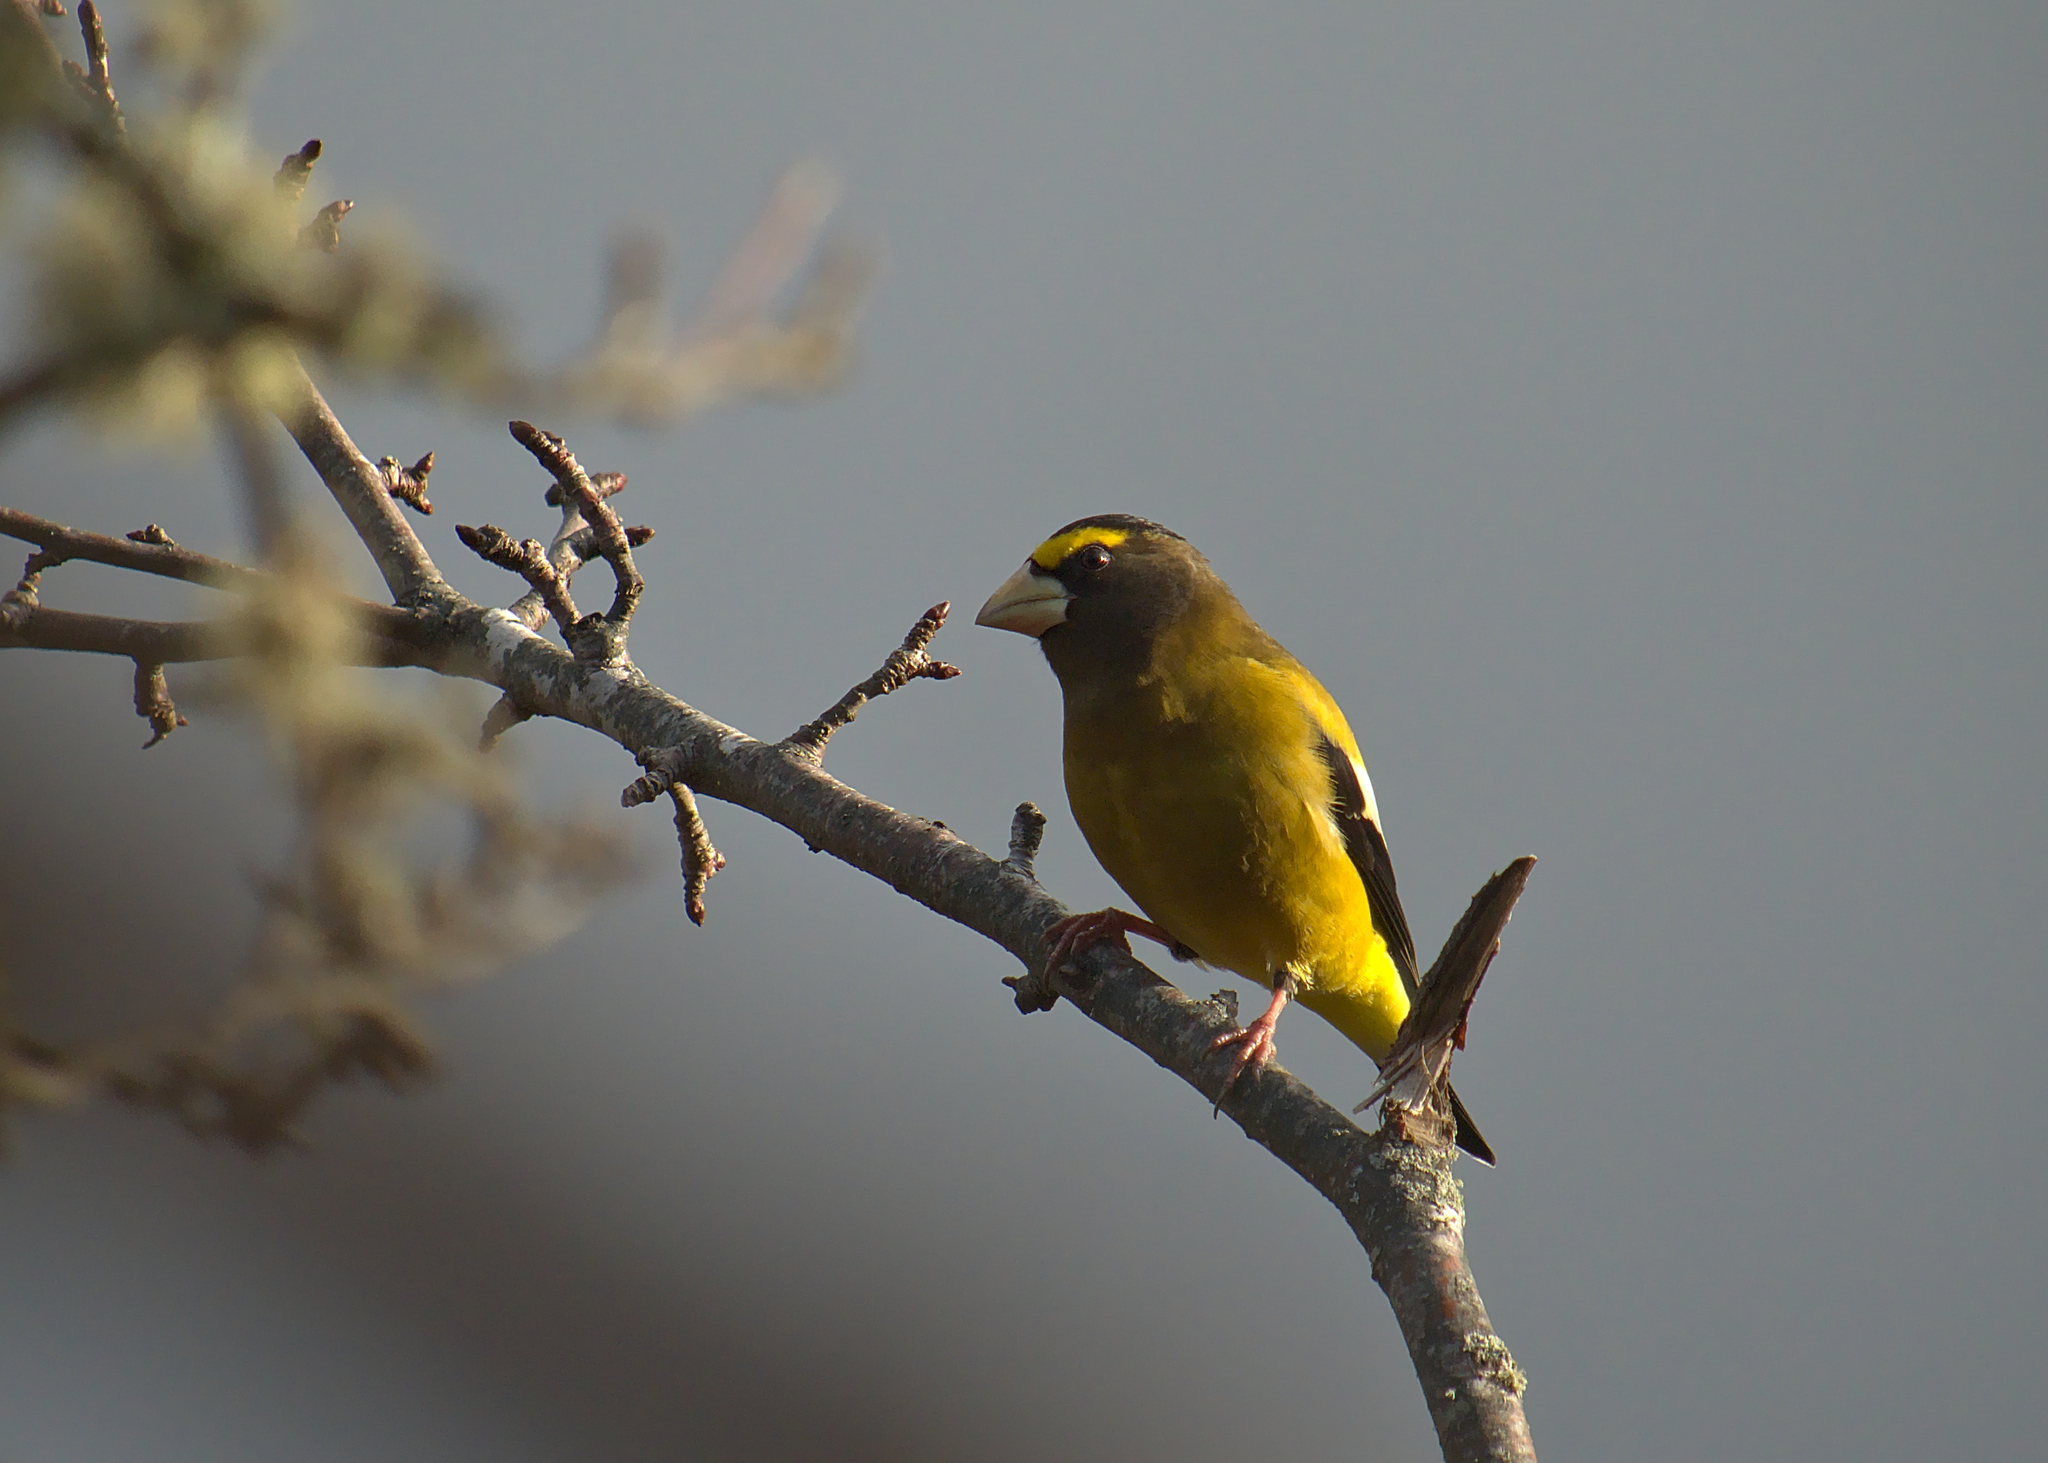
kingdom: Animalia
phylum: Chordata
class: Aves
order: Passeriformes
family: Fringillidae
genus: Hesperiphona
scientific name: Hesperiphona vespertina
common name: Evening grosbeak
